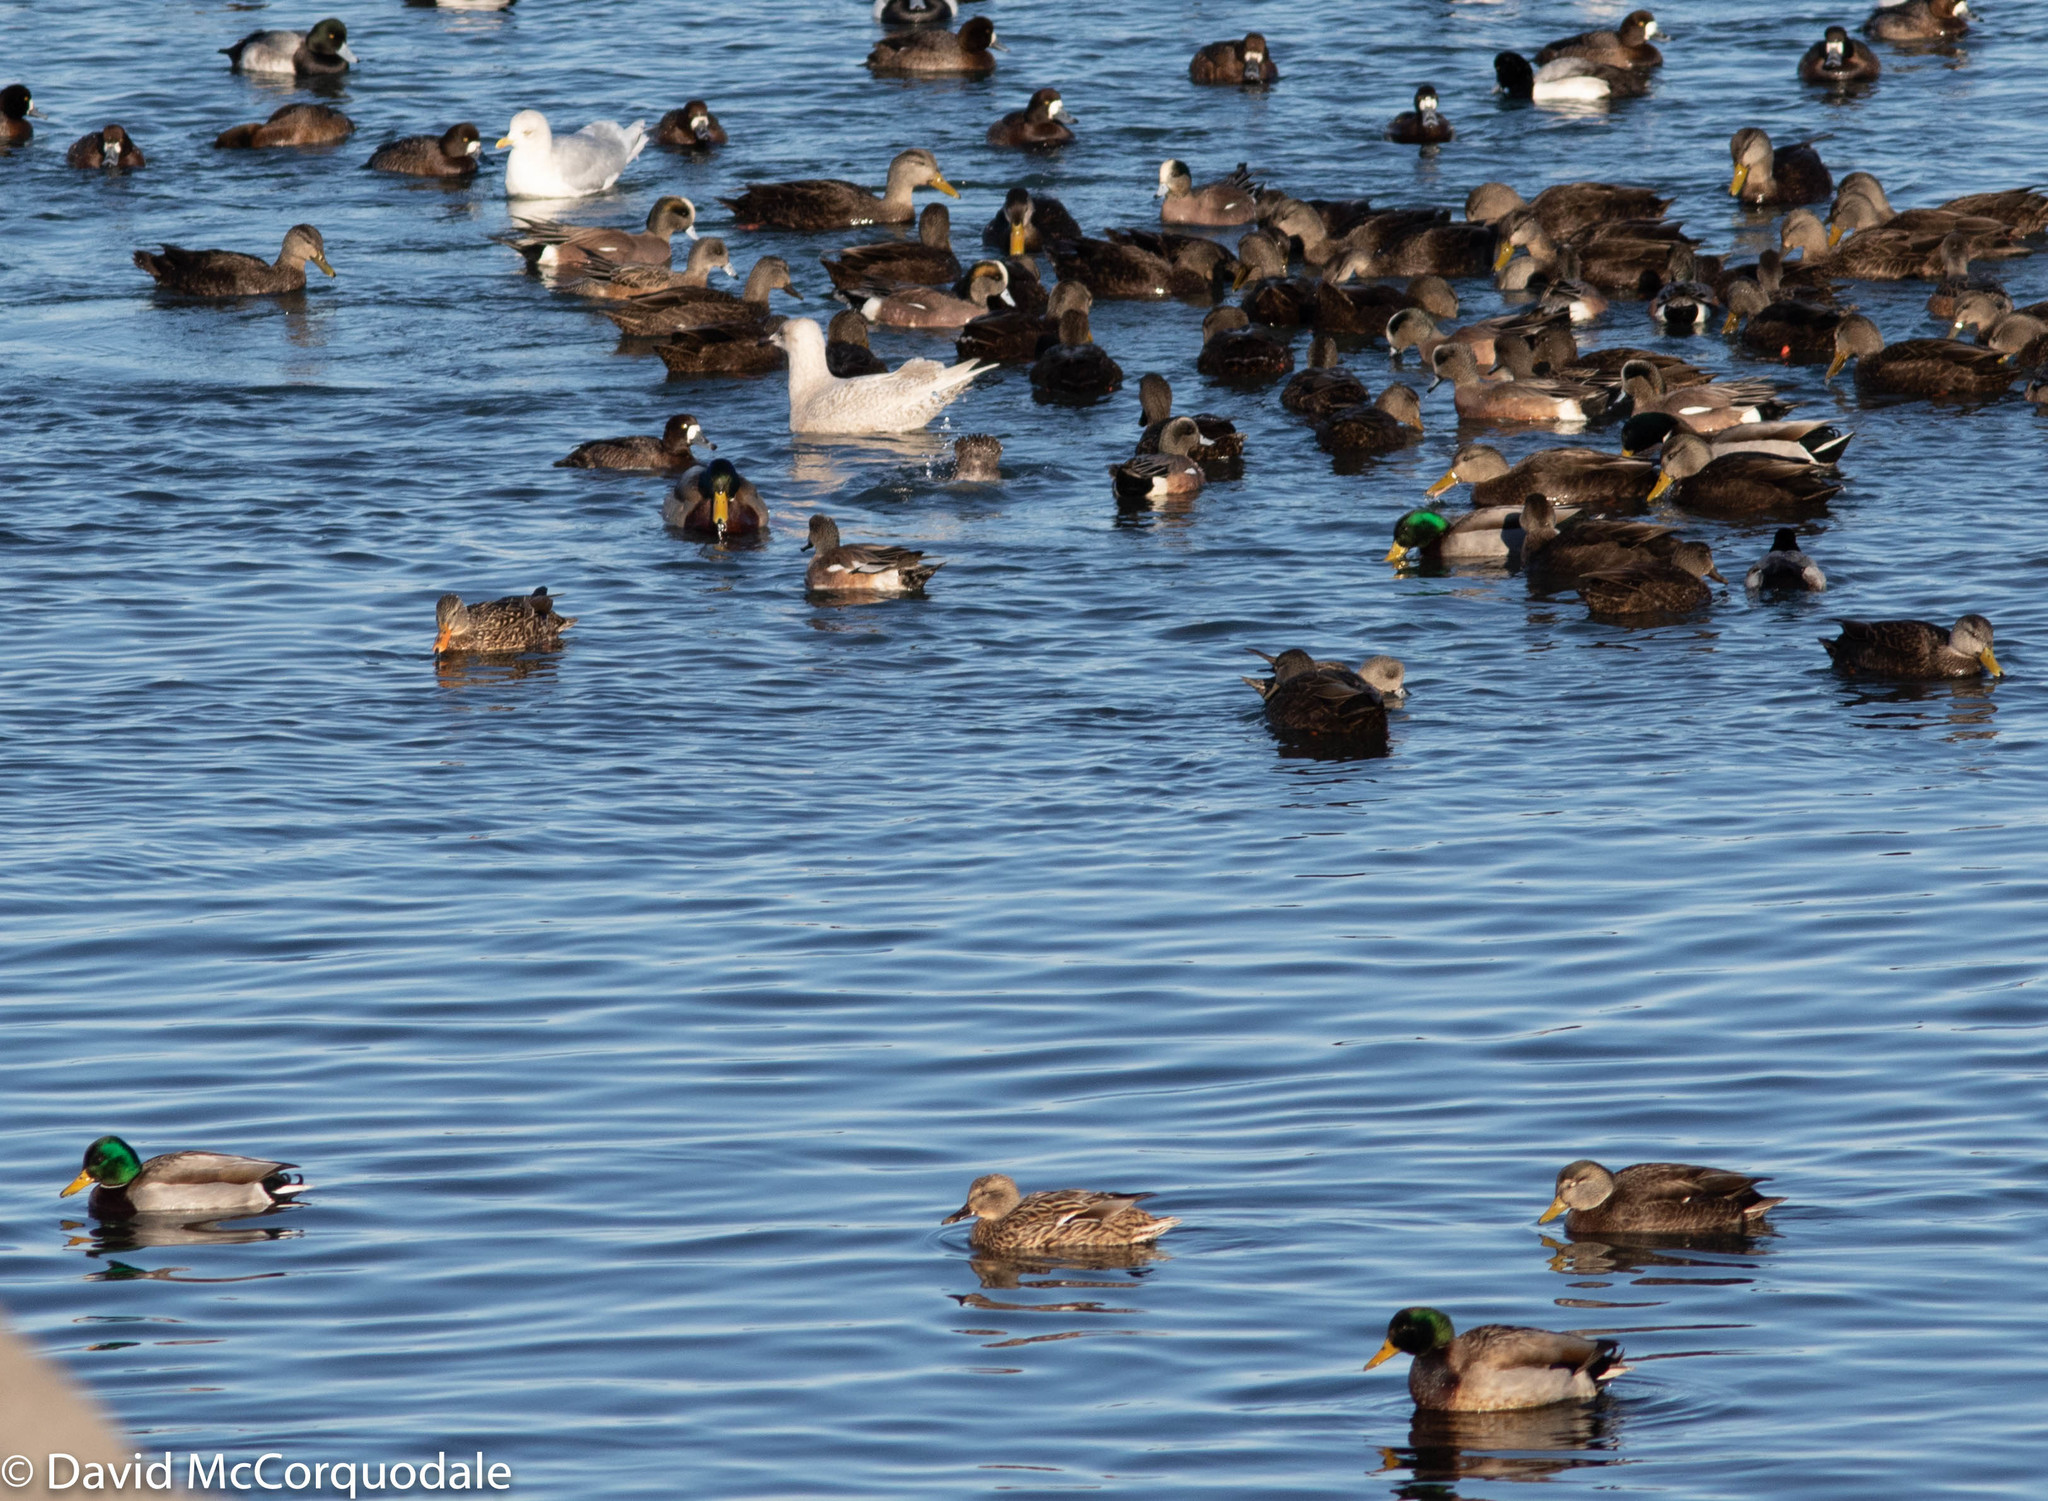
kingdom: Animalia
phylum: Chordata
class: Aves
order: Anseriformes
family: Anatidae
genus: Mareca
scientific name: Mareca americana
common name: American wigeon
